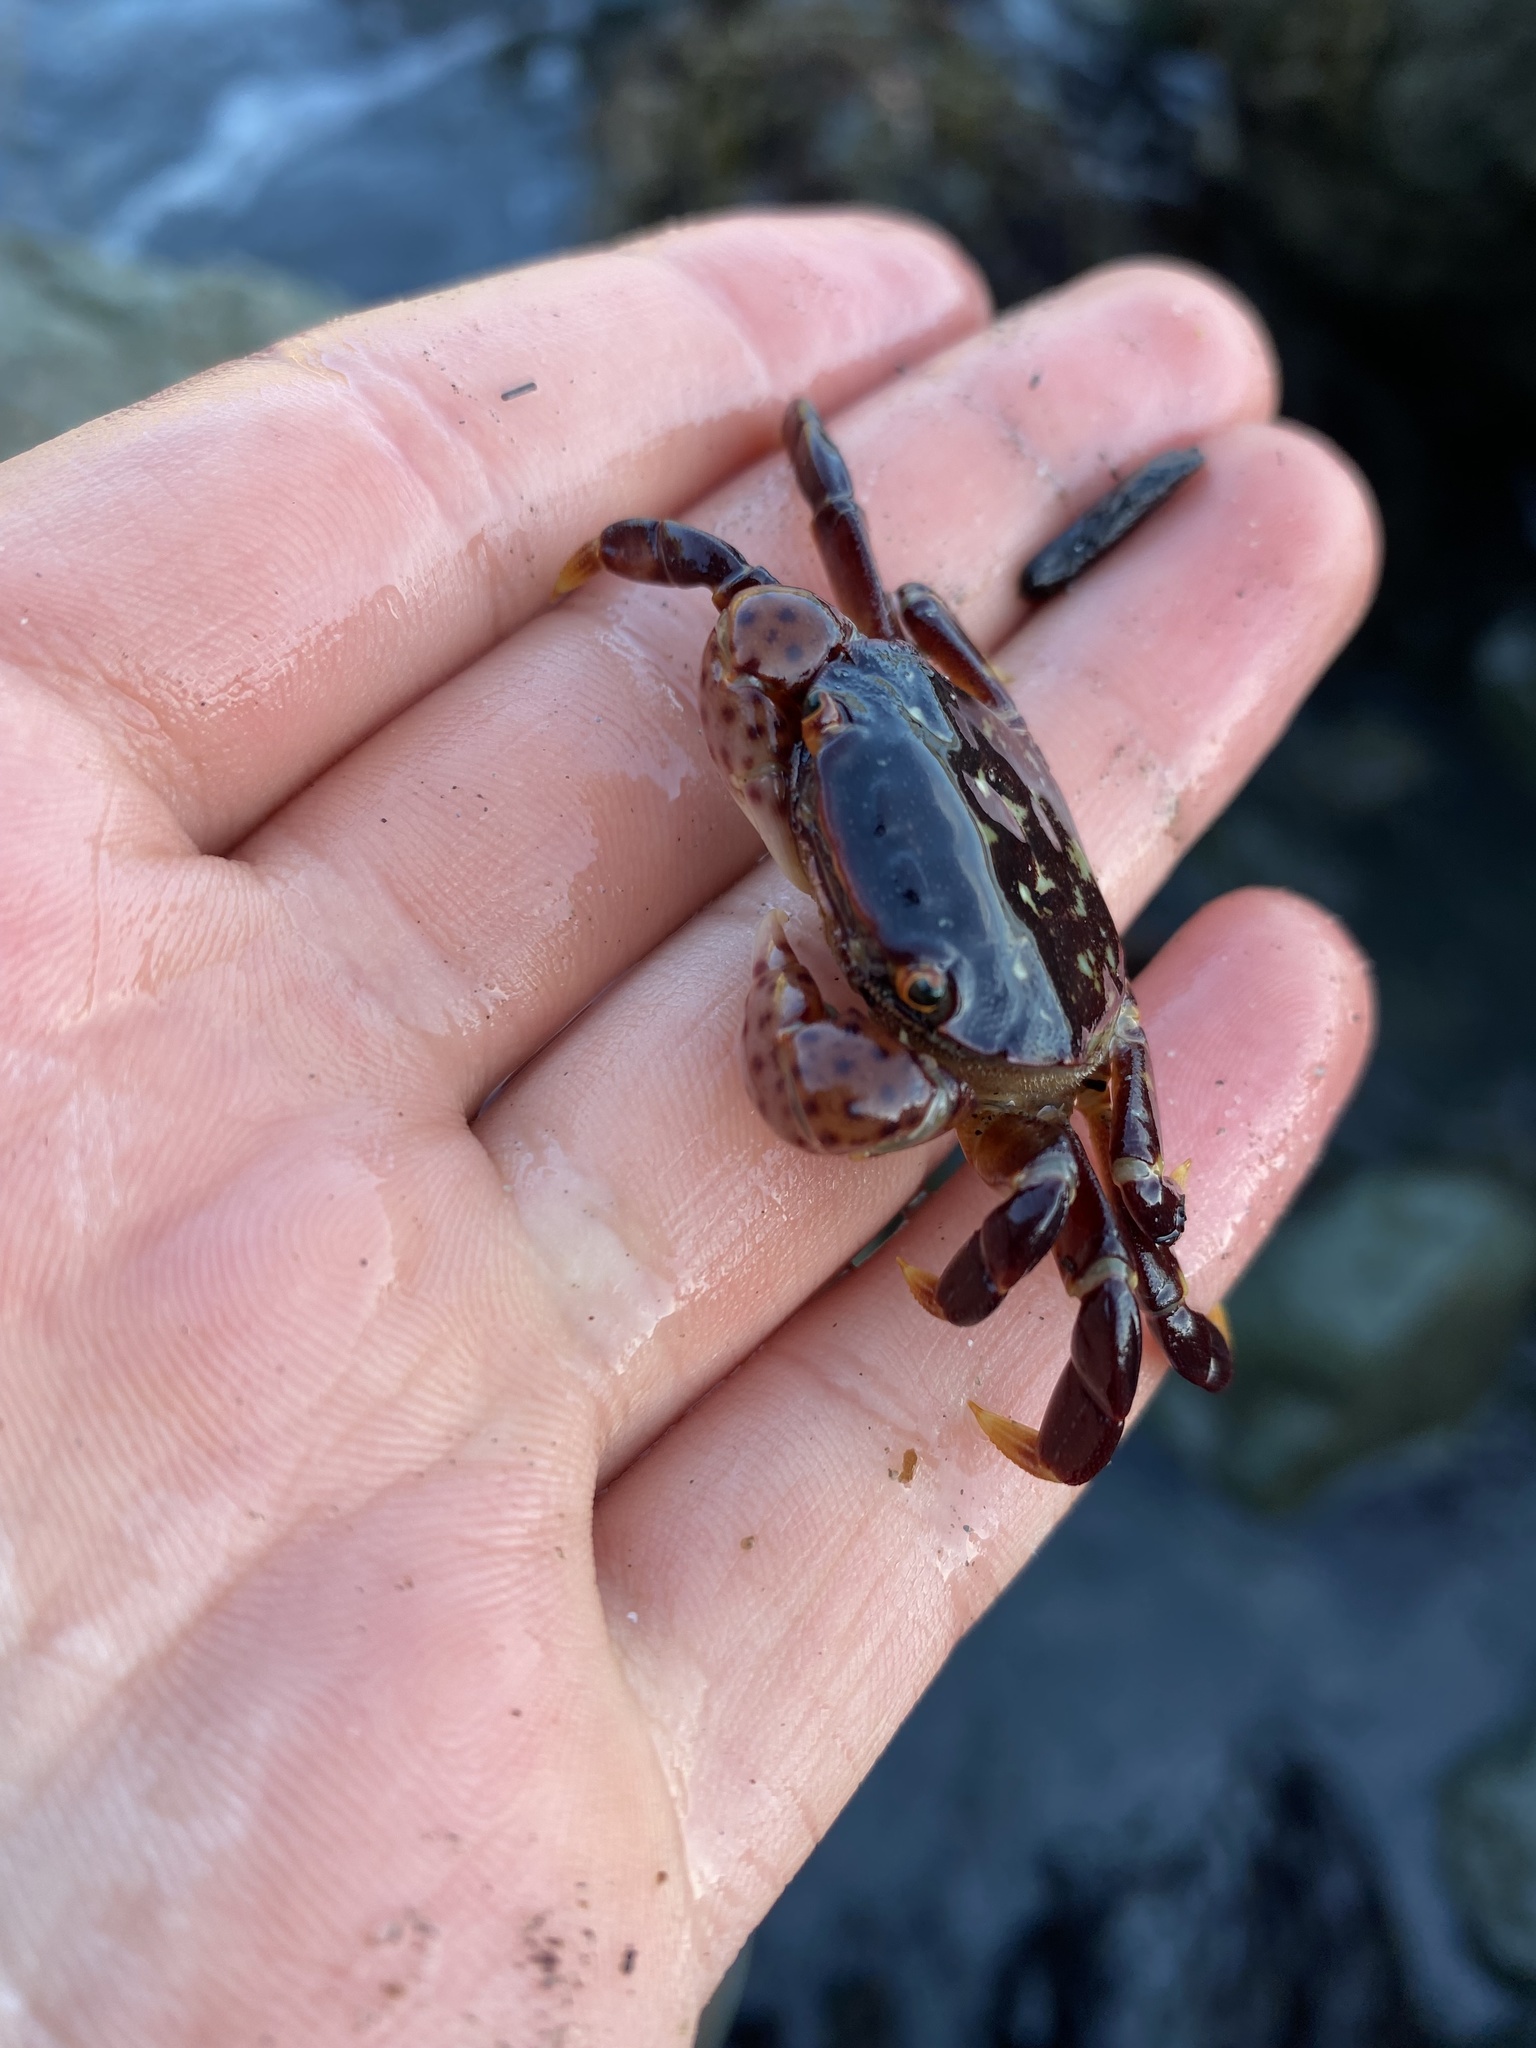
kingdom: Animalia
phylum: Arthropoda
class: Malacostraca
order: Decapoda
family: Varunidae
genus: Hemigrapsus
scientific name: Hemigrapsus nudus
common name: Purple shore crab
